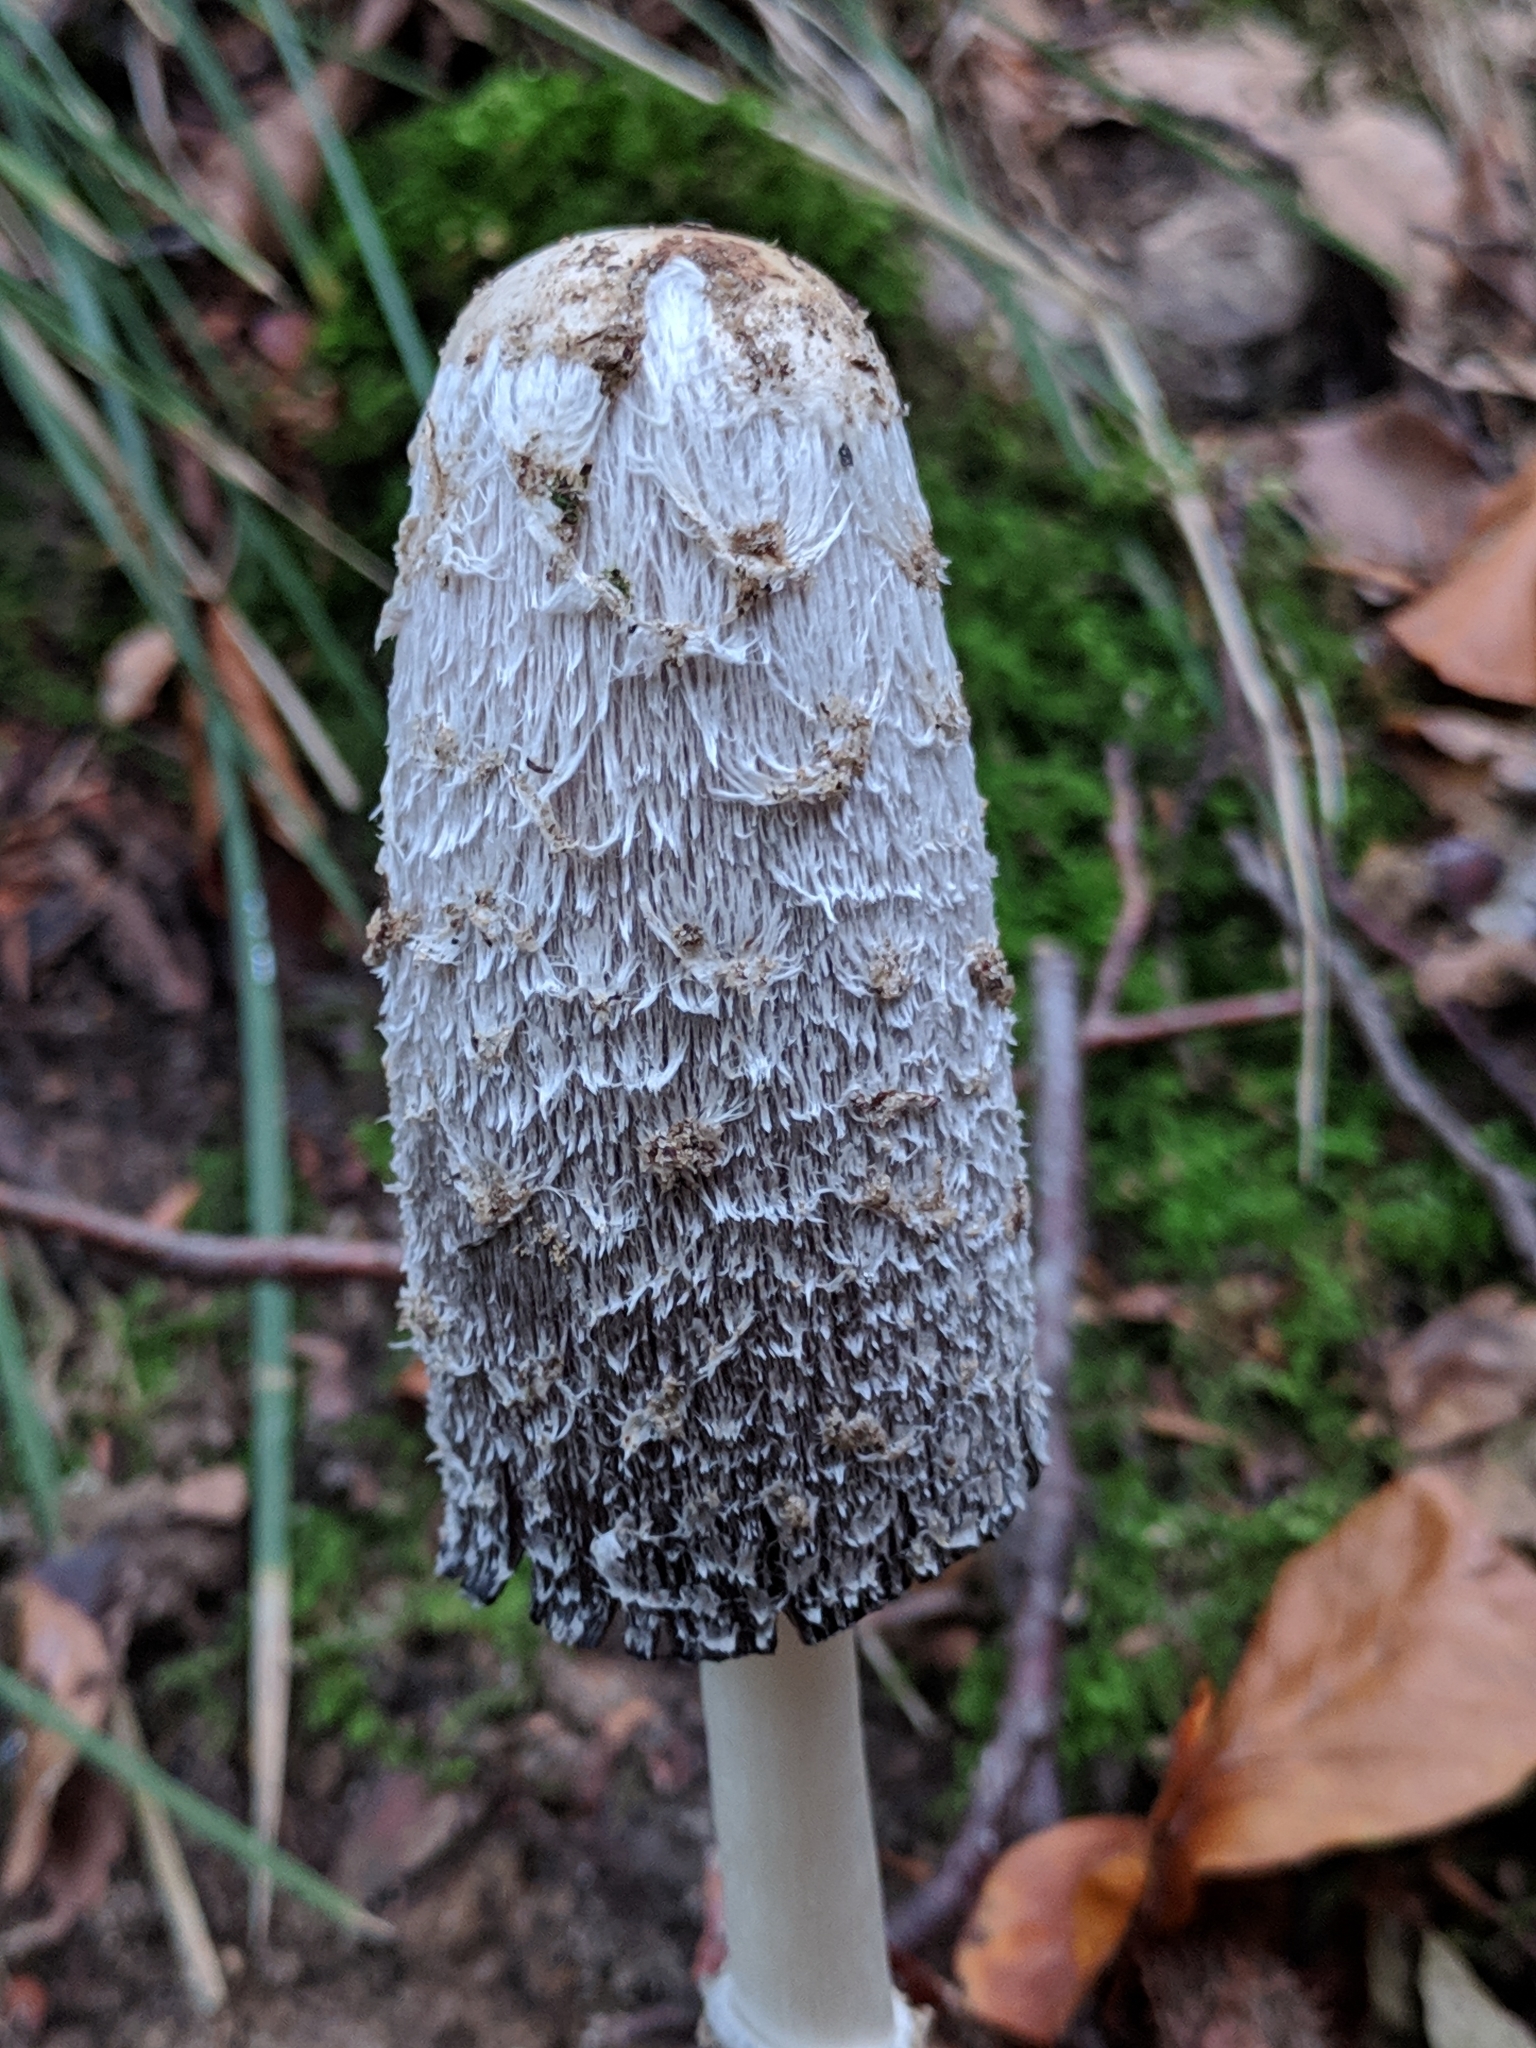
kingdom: Fungi
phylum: Basidiomycota
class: Agaricomycetes
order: Agaricales
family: Agaricaceae
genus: Coprinus
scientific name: Coprinus comatus
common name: Lawyer's wig
